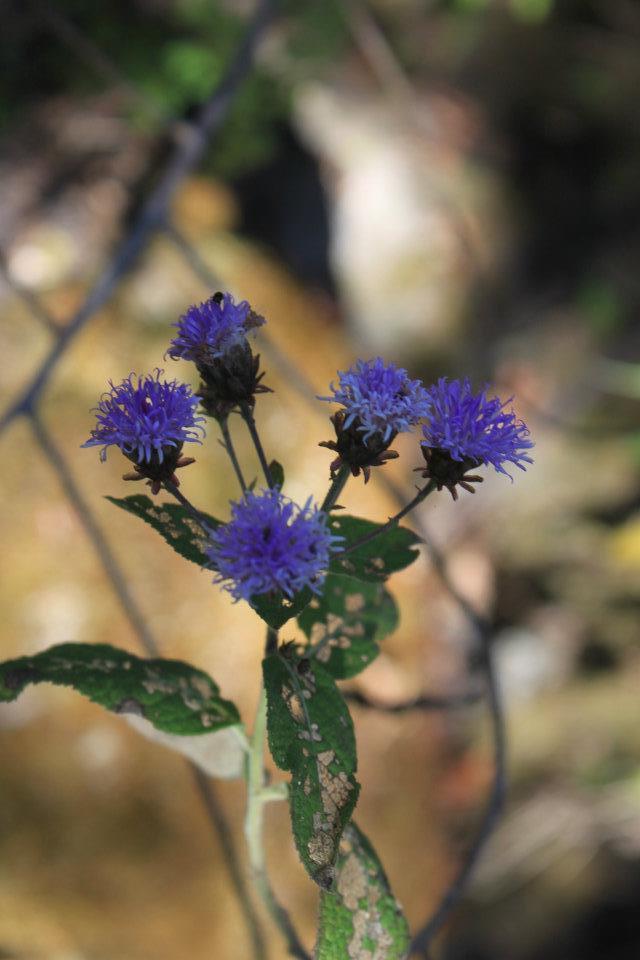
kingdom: Plantae
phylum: Tracheophyta
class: Magnoliopsida
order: Asterales
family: Asteraceae
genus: Vernonia
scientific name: Vernonia karvinskiana
